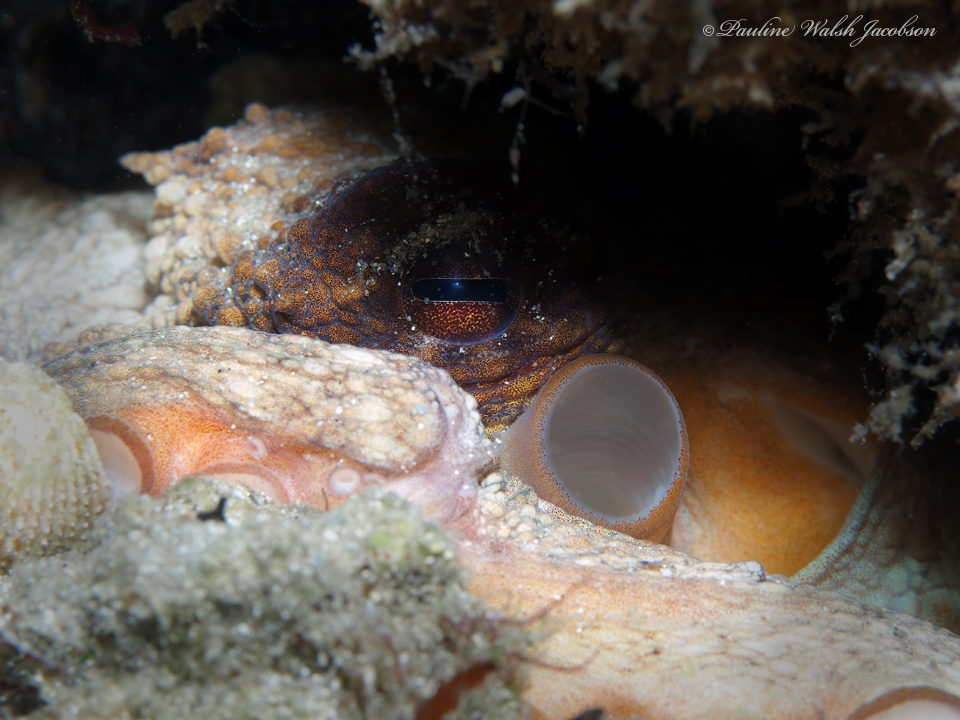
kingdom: Animalia
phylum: Mollusca
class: Cephalopoda
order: Octopoda
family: Octopodidae
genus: Octopus
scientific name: Octopus americanus
